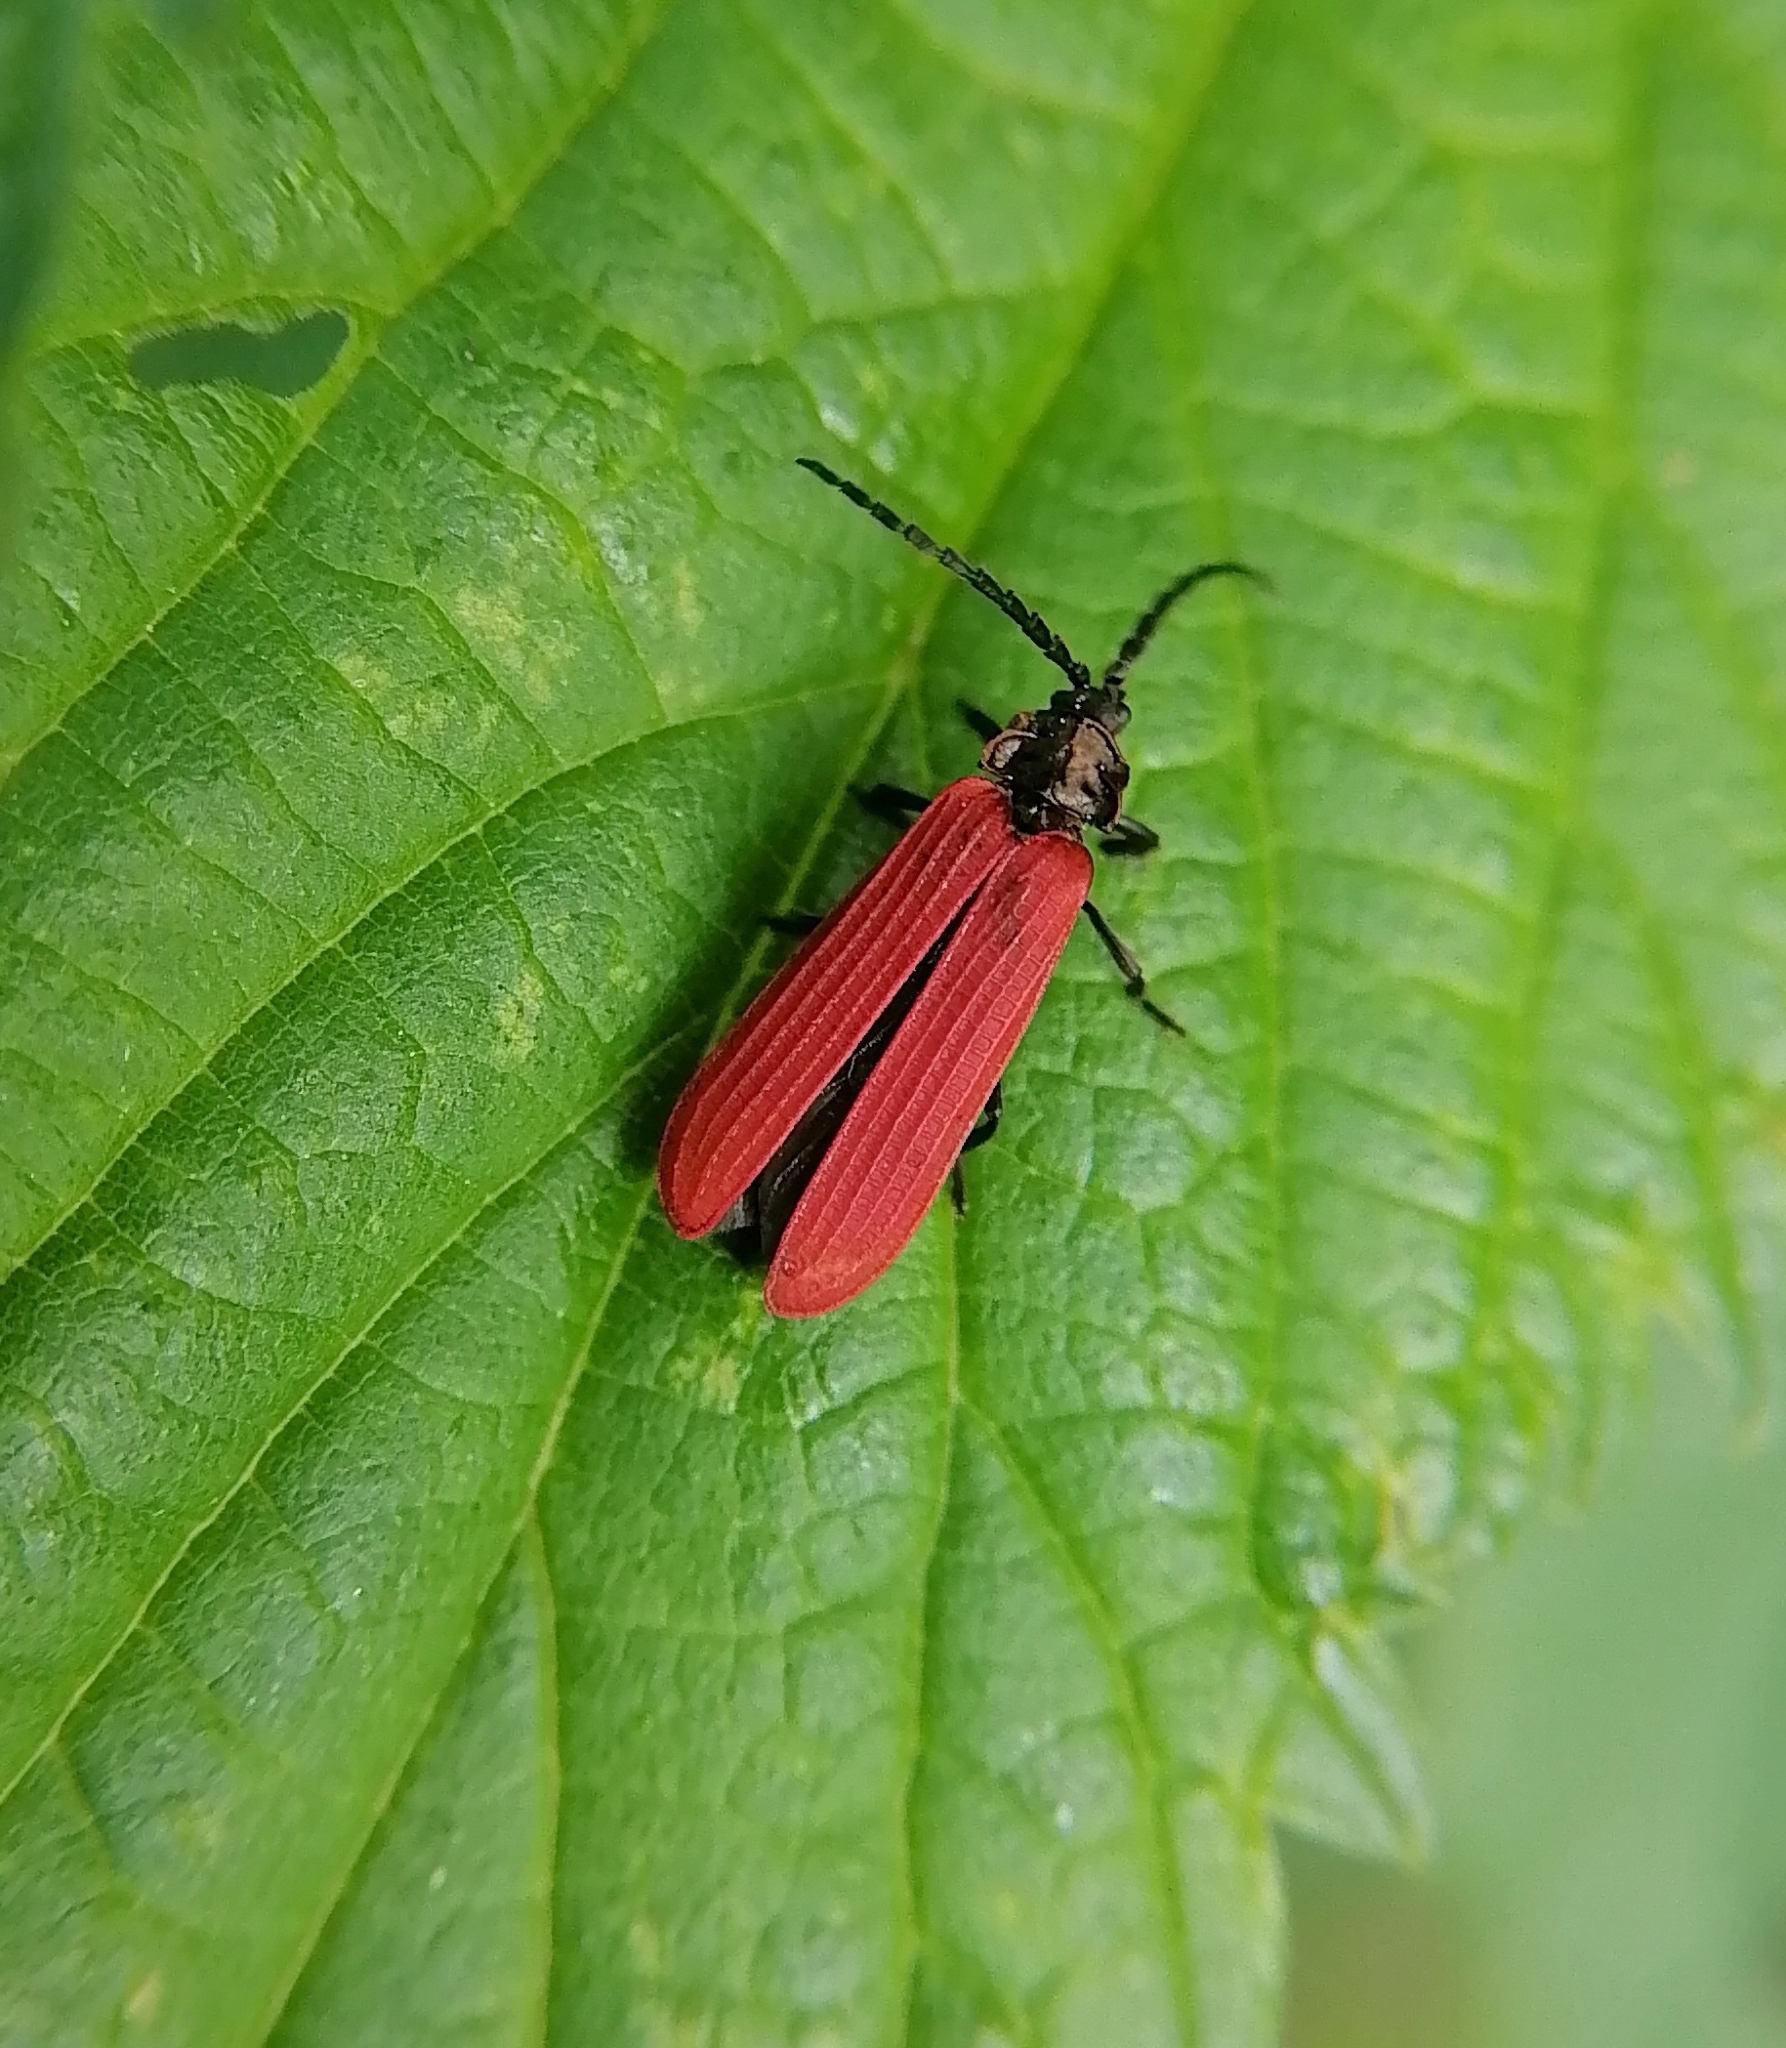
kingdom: Animalia
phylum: Arthropoda
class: Insecta
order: Coleoptera
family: Lycidae
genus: Xylobanellus
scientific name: Xylobanellus erythropterus
